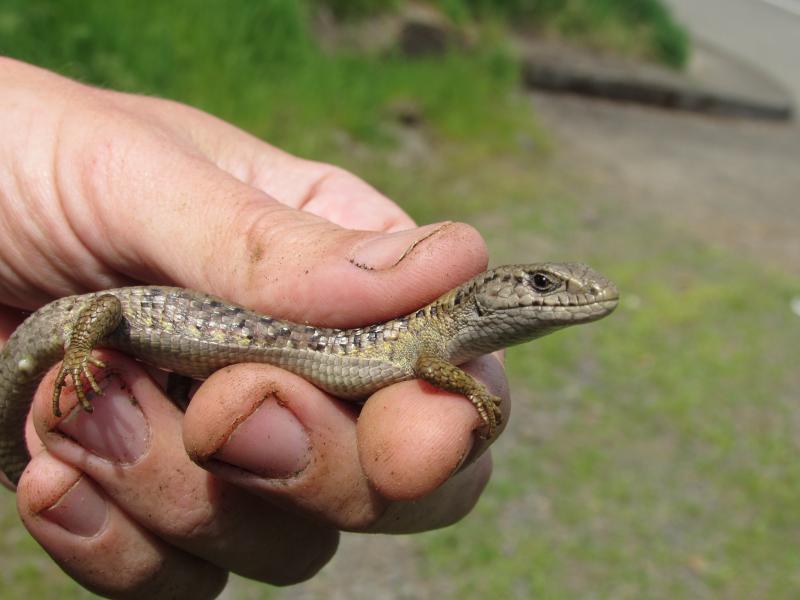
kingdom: Animalia
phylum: Chordata
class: Squamata
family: Anguidae
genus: Elgaria
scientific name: Elgaria coerulea
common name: Northern alligator lizard
